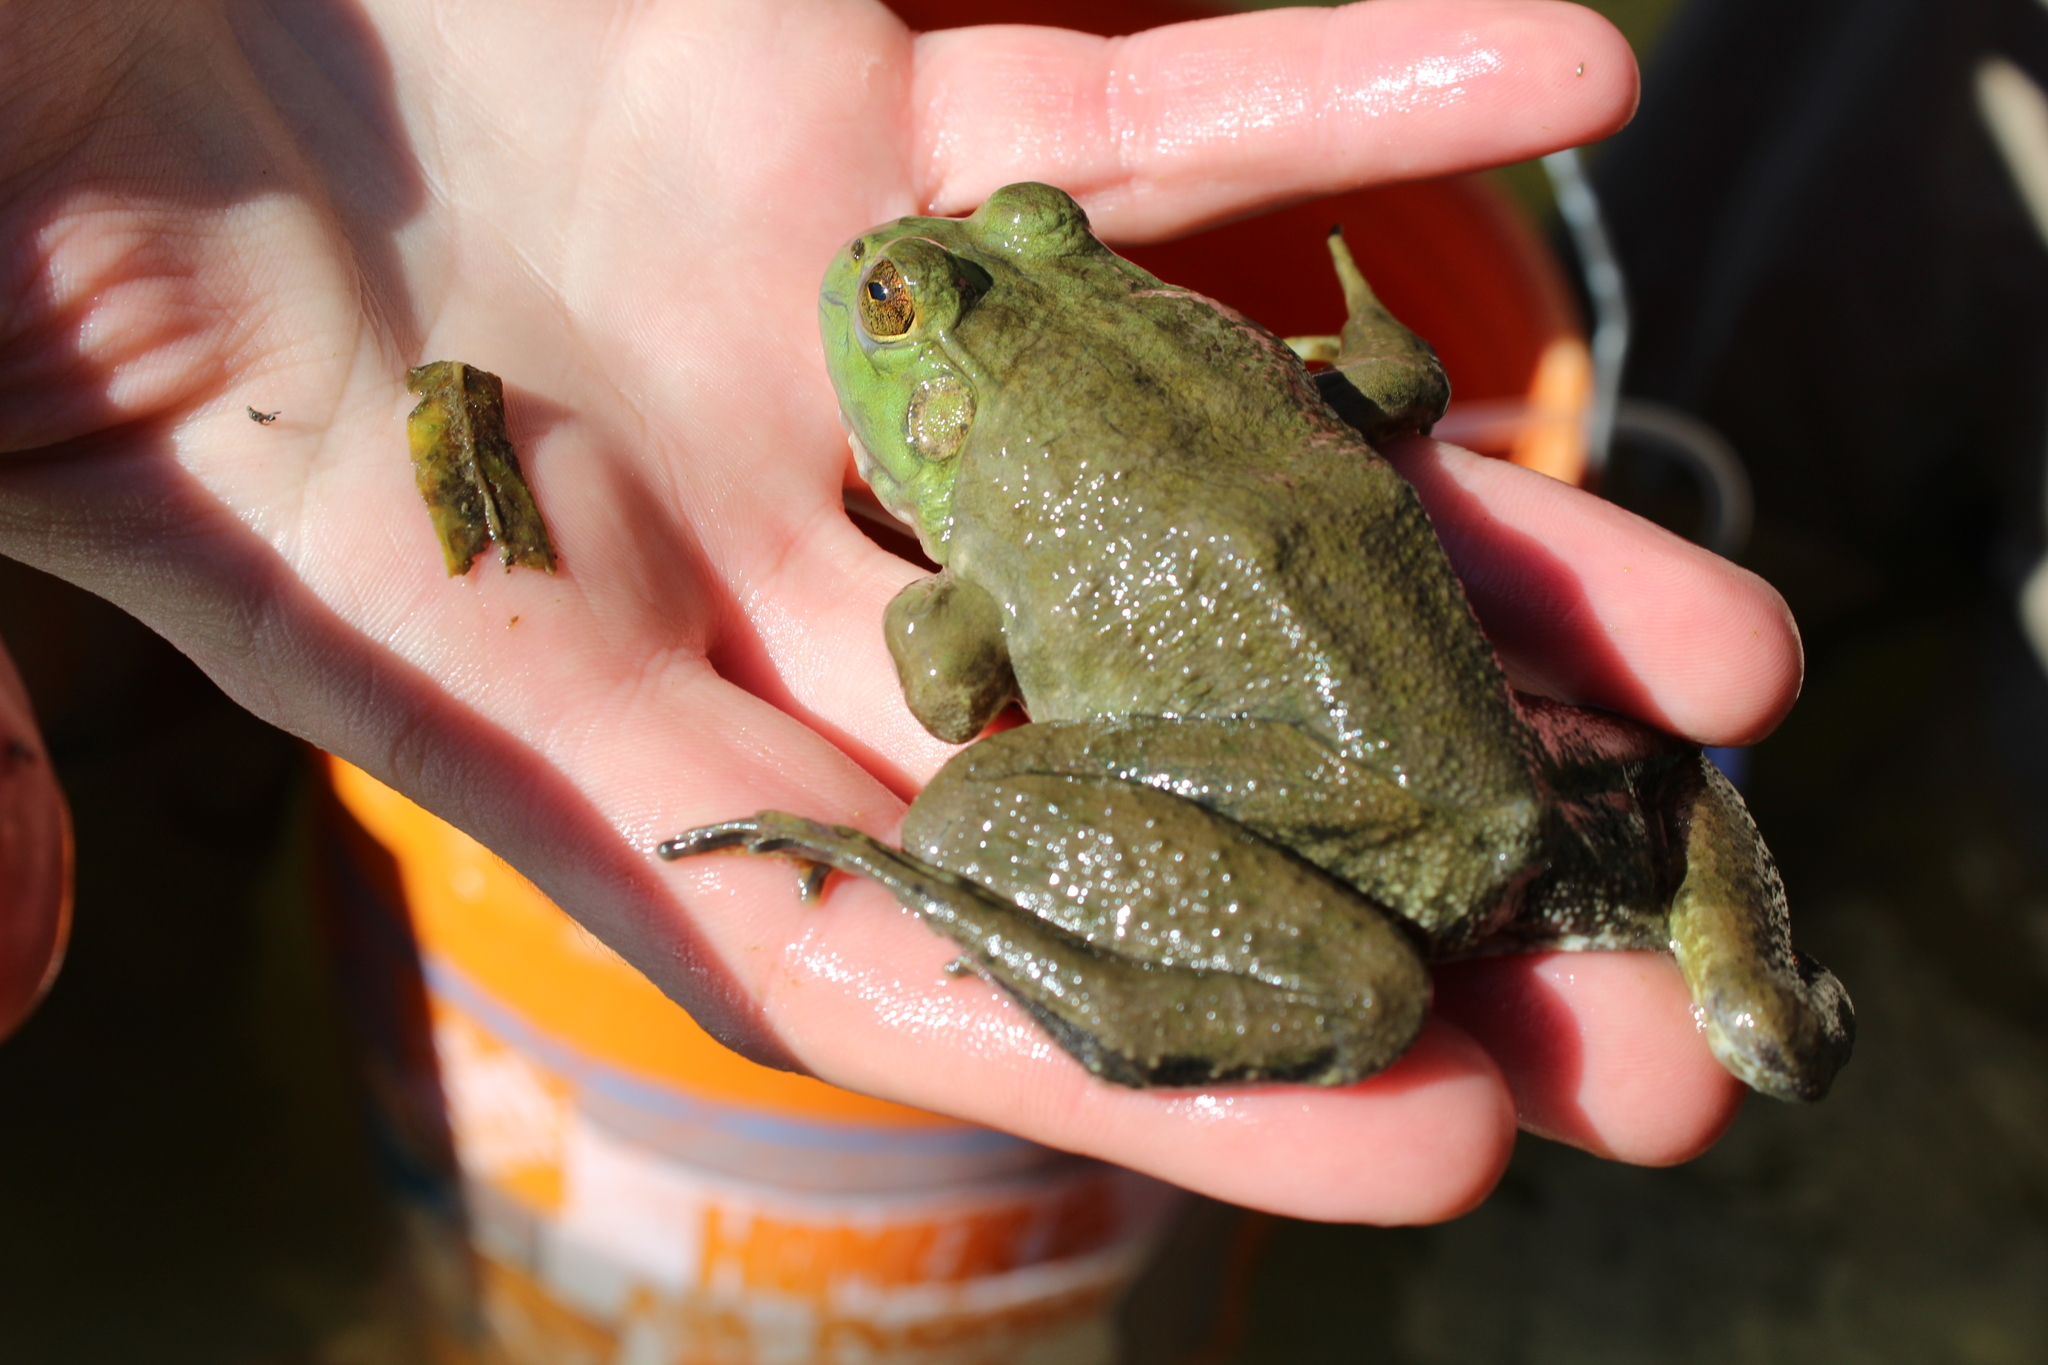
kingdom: Animalia
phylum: Chordata
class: Amphibia
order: Anura
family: Ranidae
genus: Lithobates
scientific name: Lithobates catesbeianus
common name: American bullfrog
